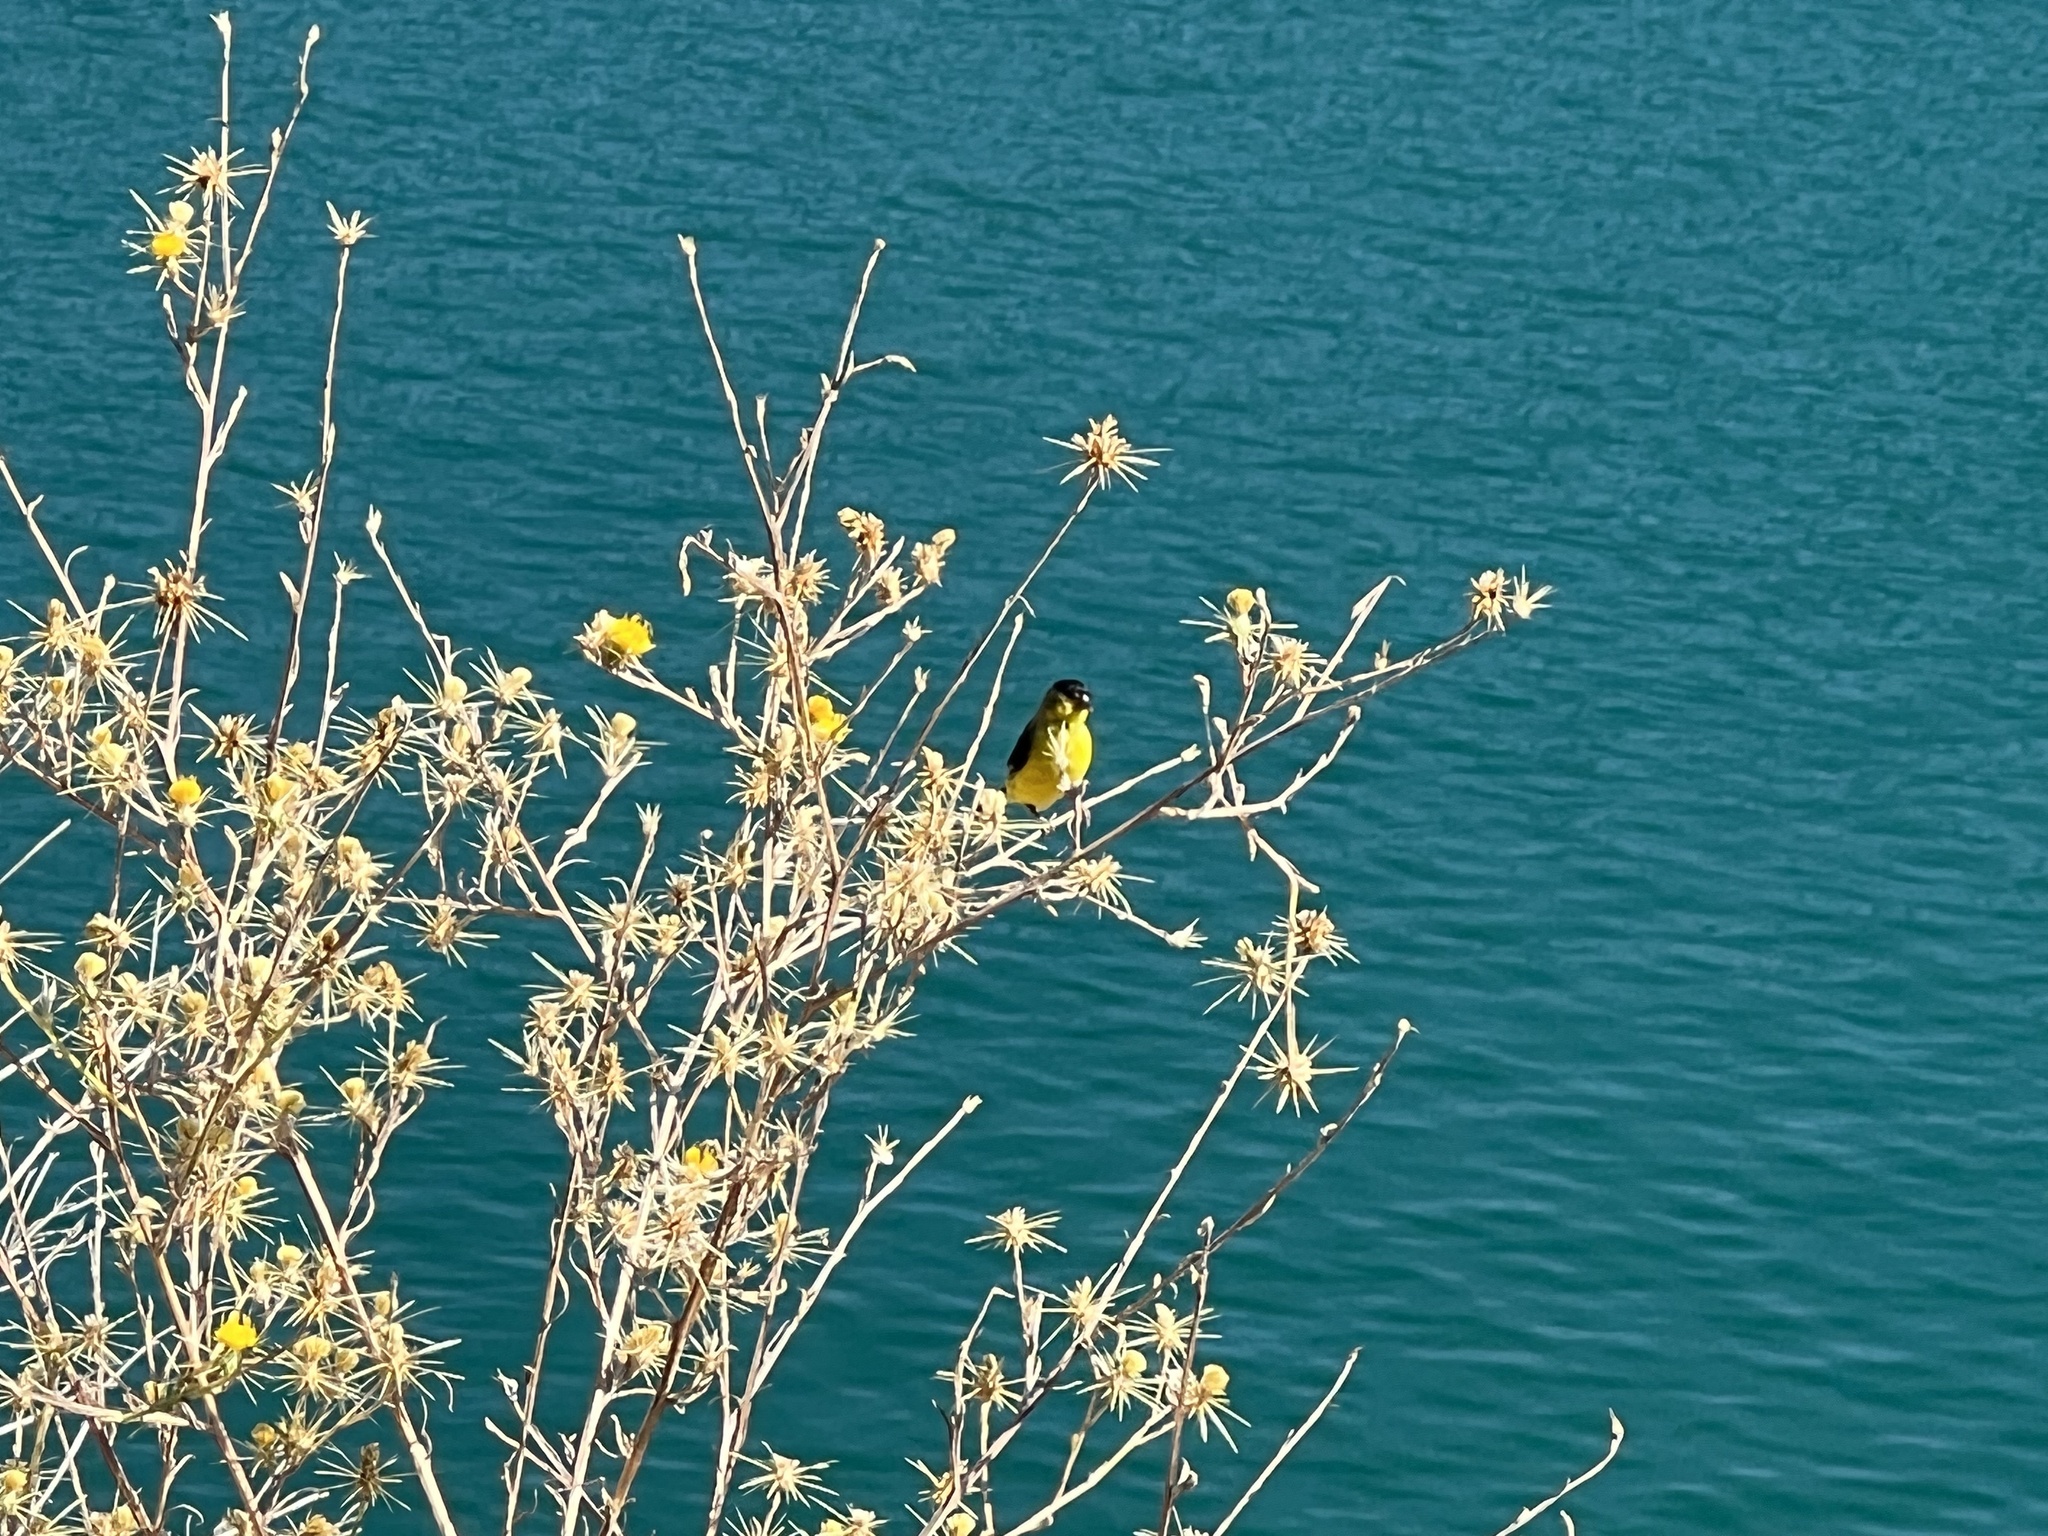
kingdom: Animalia
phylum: Chordata
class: Aves
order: Passeriformes
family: Fringillidae
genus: Spinus
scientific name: Spinus psaltria
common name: Lesser goldfinch
